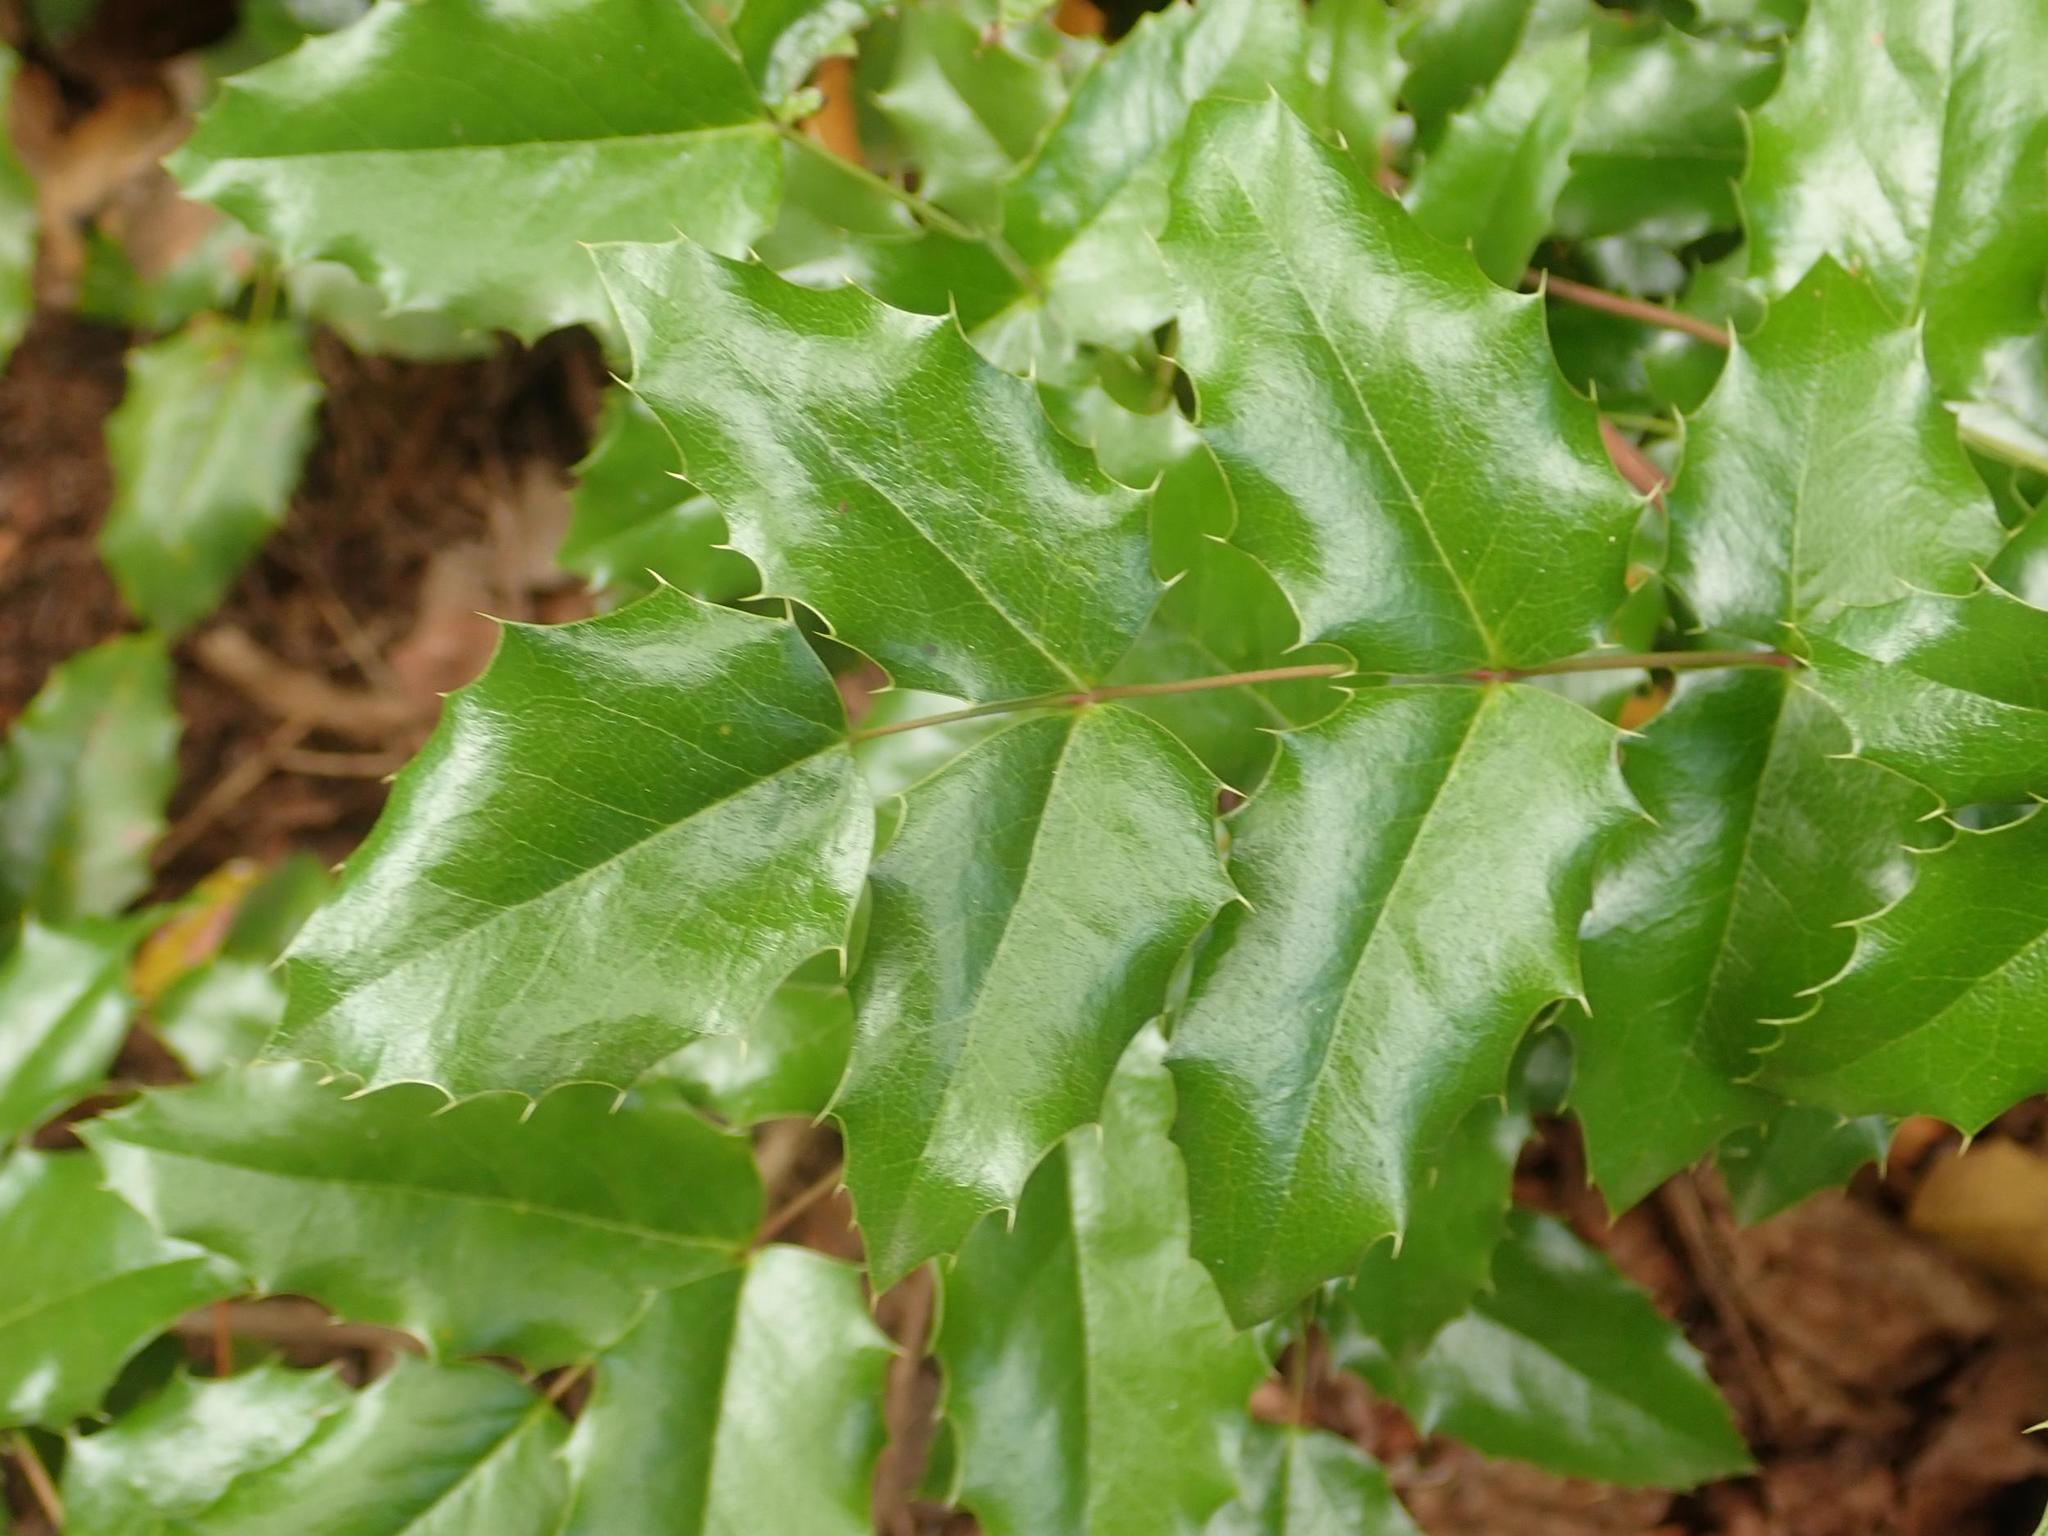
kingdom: Plantae
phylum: Tracheophyta
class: Magnoliopsida
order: Ranunculales
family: Berberidaceae
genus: Mahonia
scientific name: Mahonia aquifolium
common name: Oregon-grape
